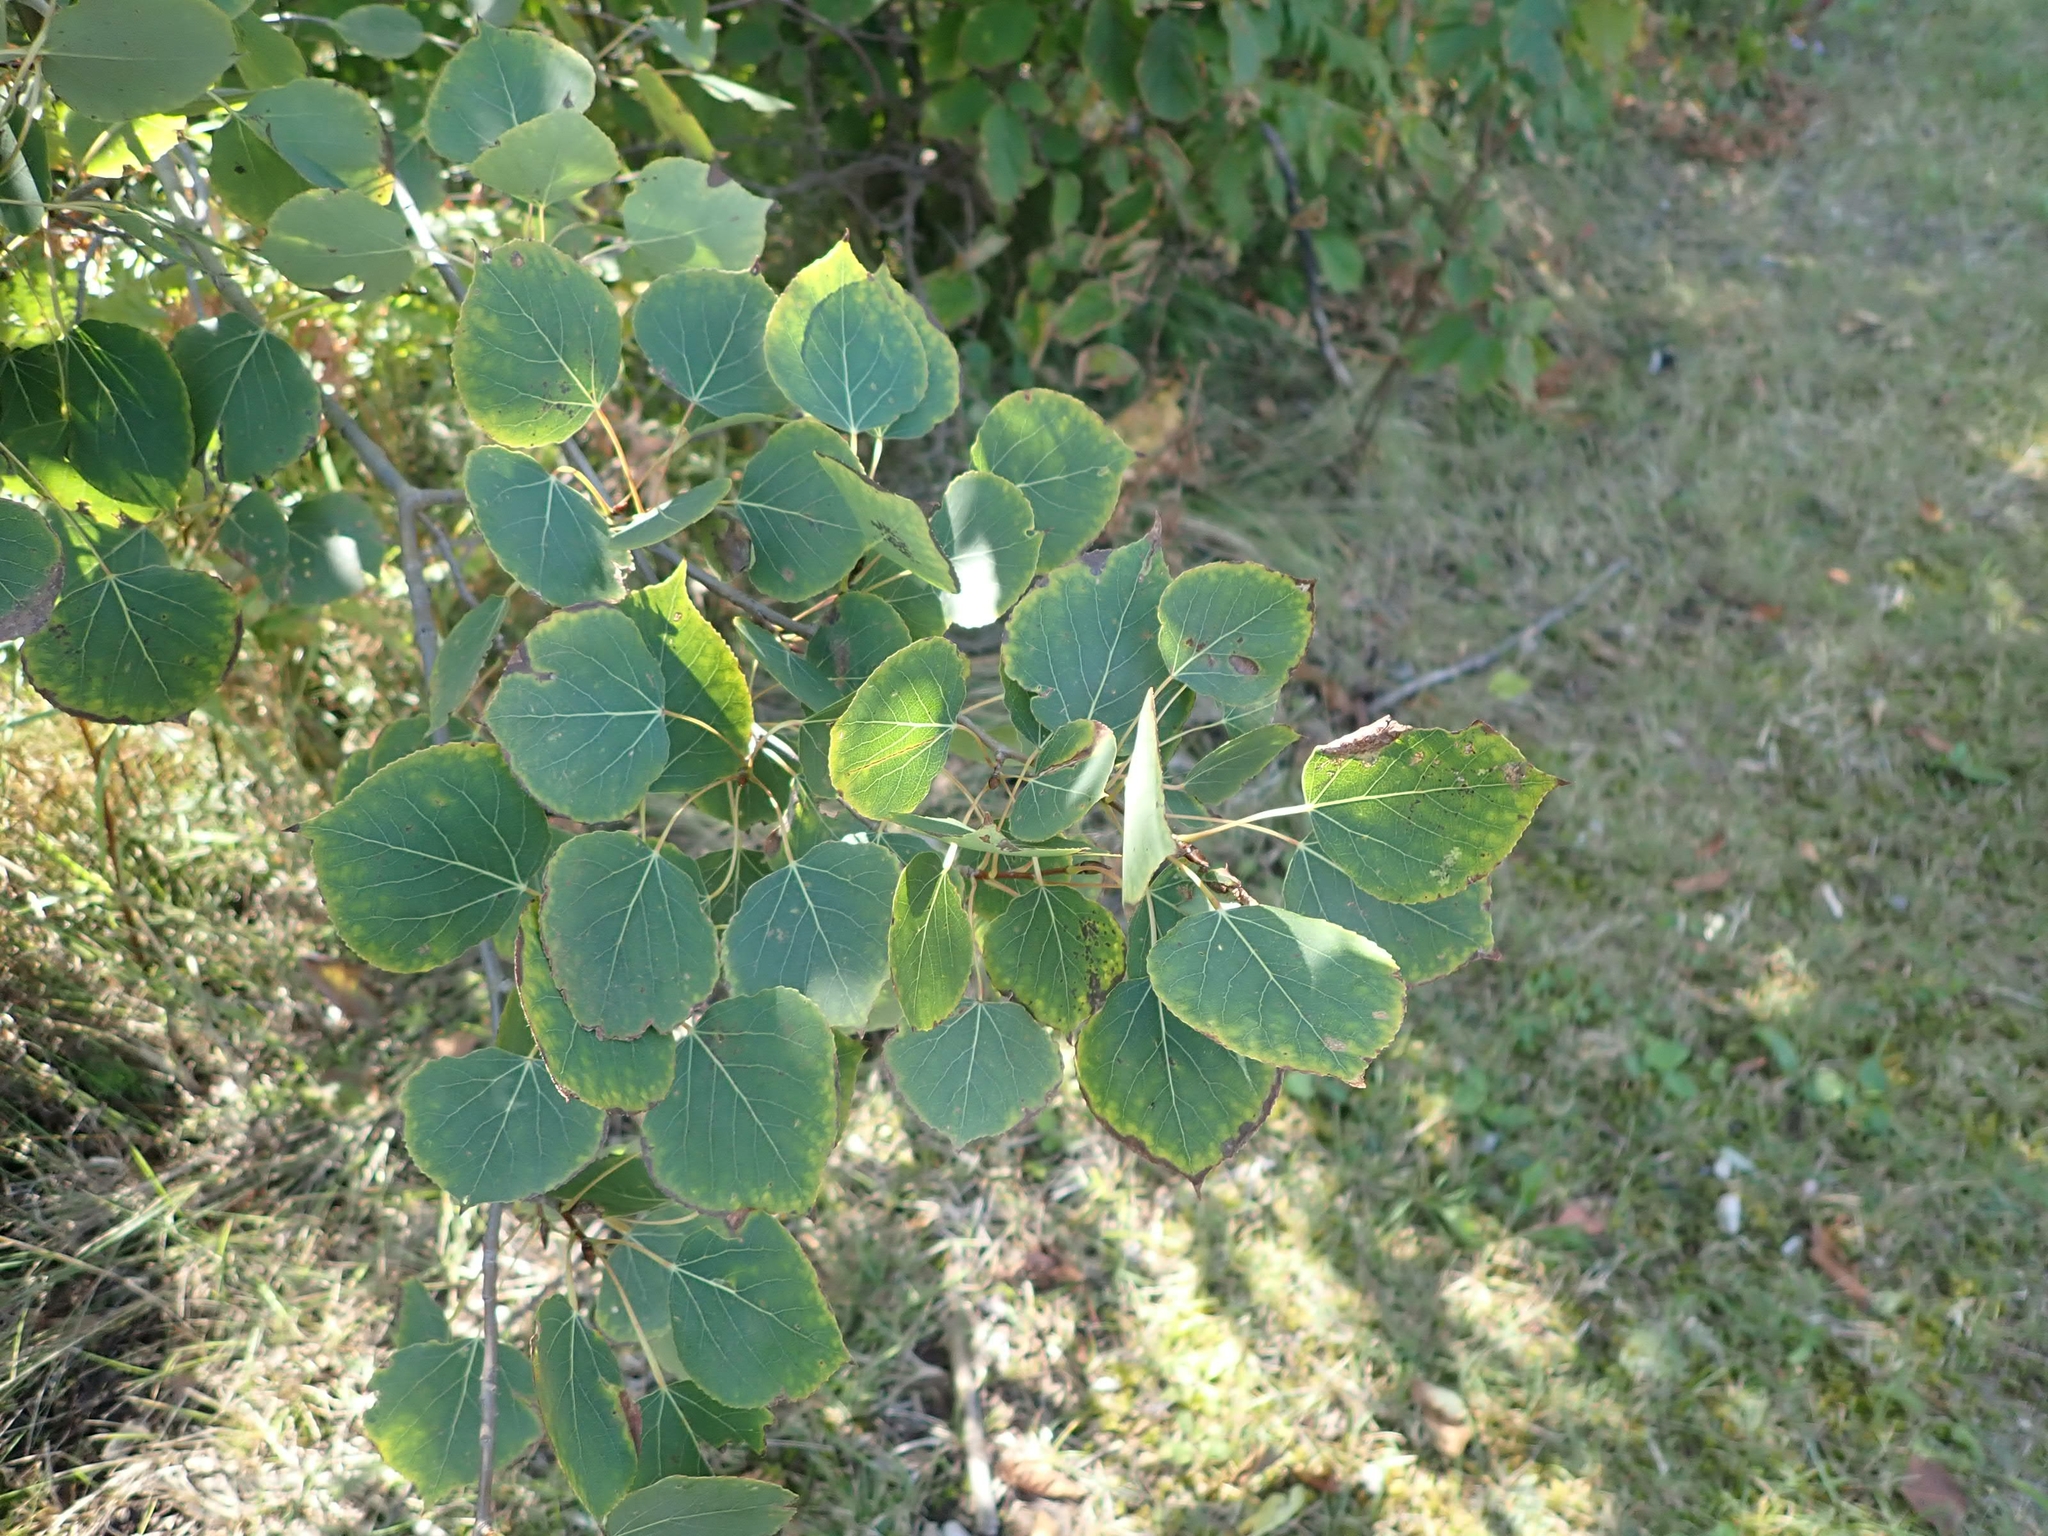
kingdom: Plantae
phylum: Tracheophyta
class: Magnoliopsida
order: Malpighiales
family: Salicaceae
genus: Populus
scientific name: Populus tremuloides
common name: Quaking aspen
